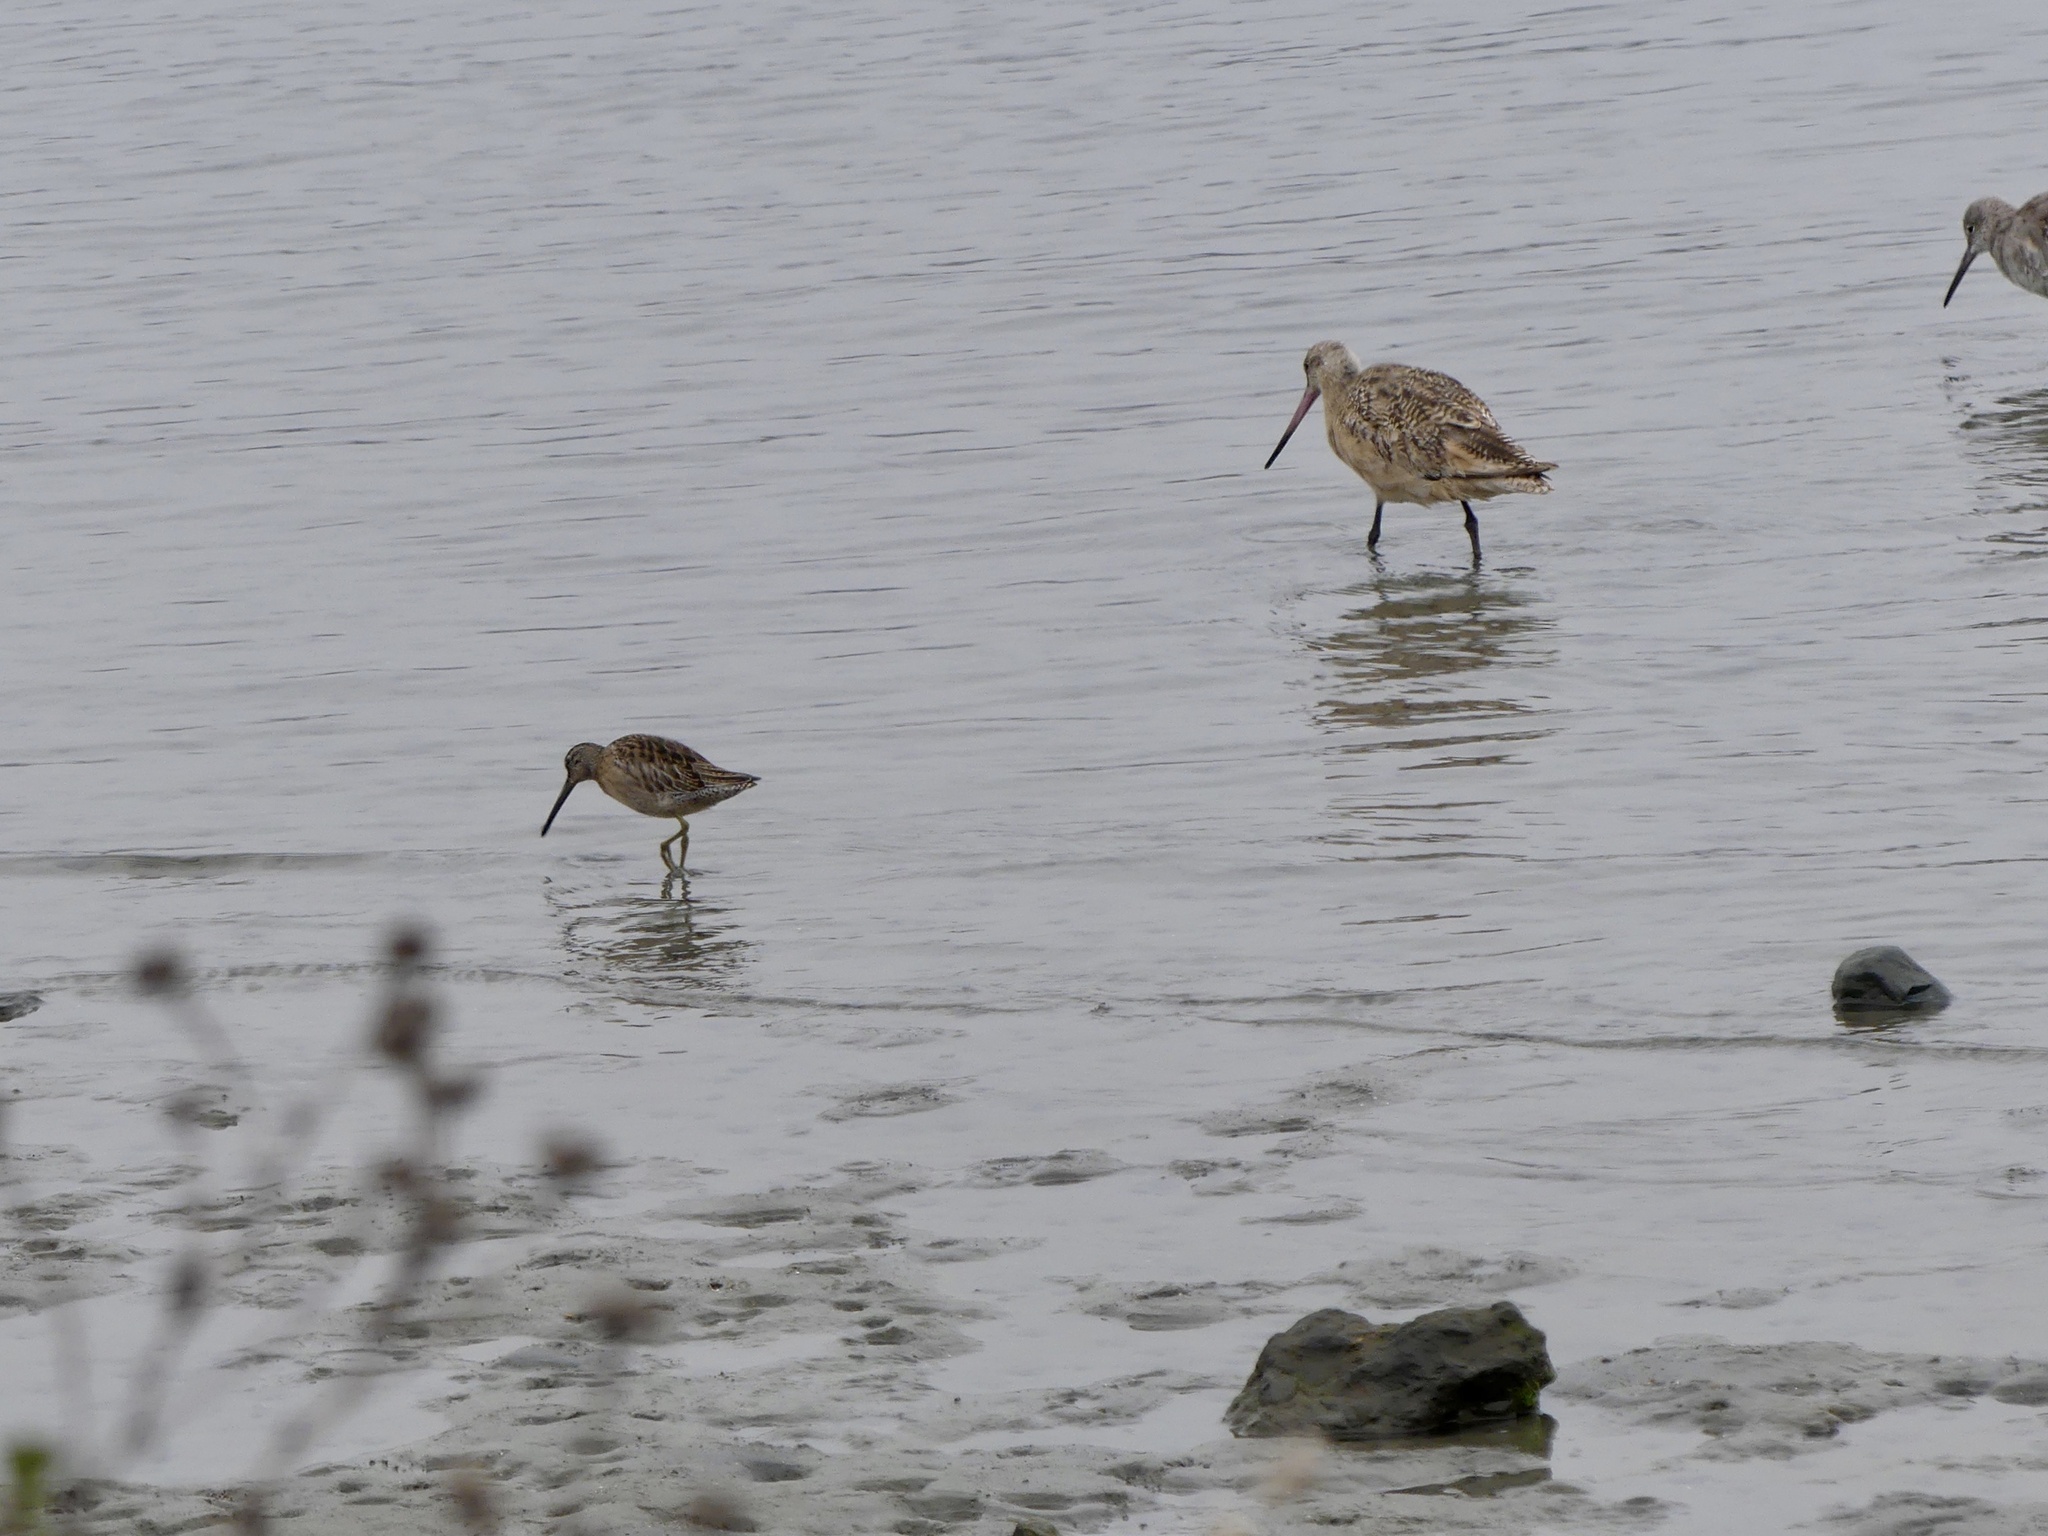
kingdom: Animalia
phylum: Chordata
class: Aves
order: Charadriiformes
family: Scolopacidae
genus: Limnodromus
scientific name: Limnodromus griseus
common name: Short-billed dowitcher
